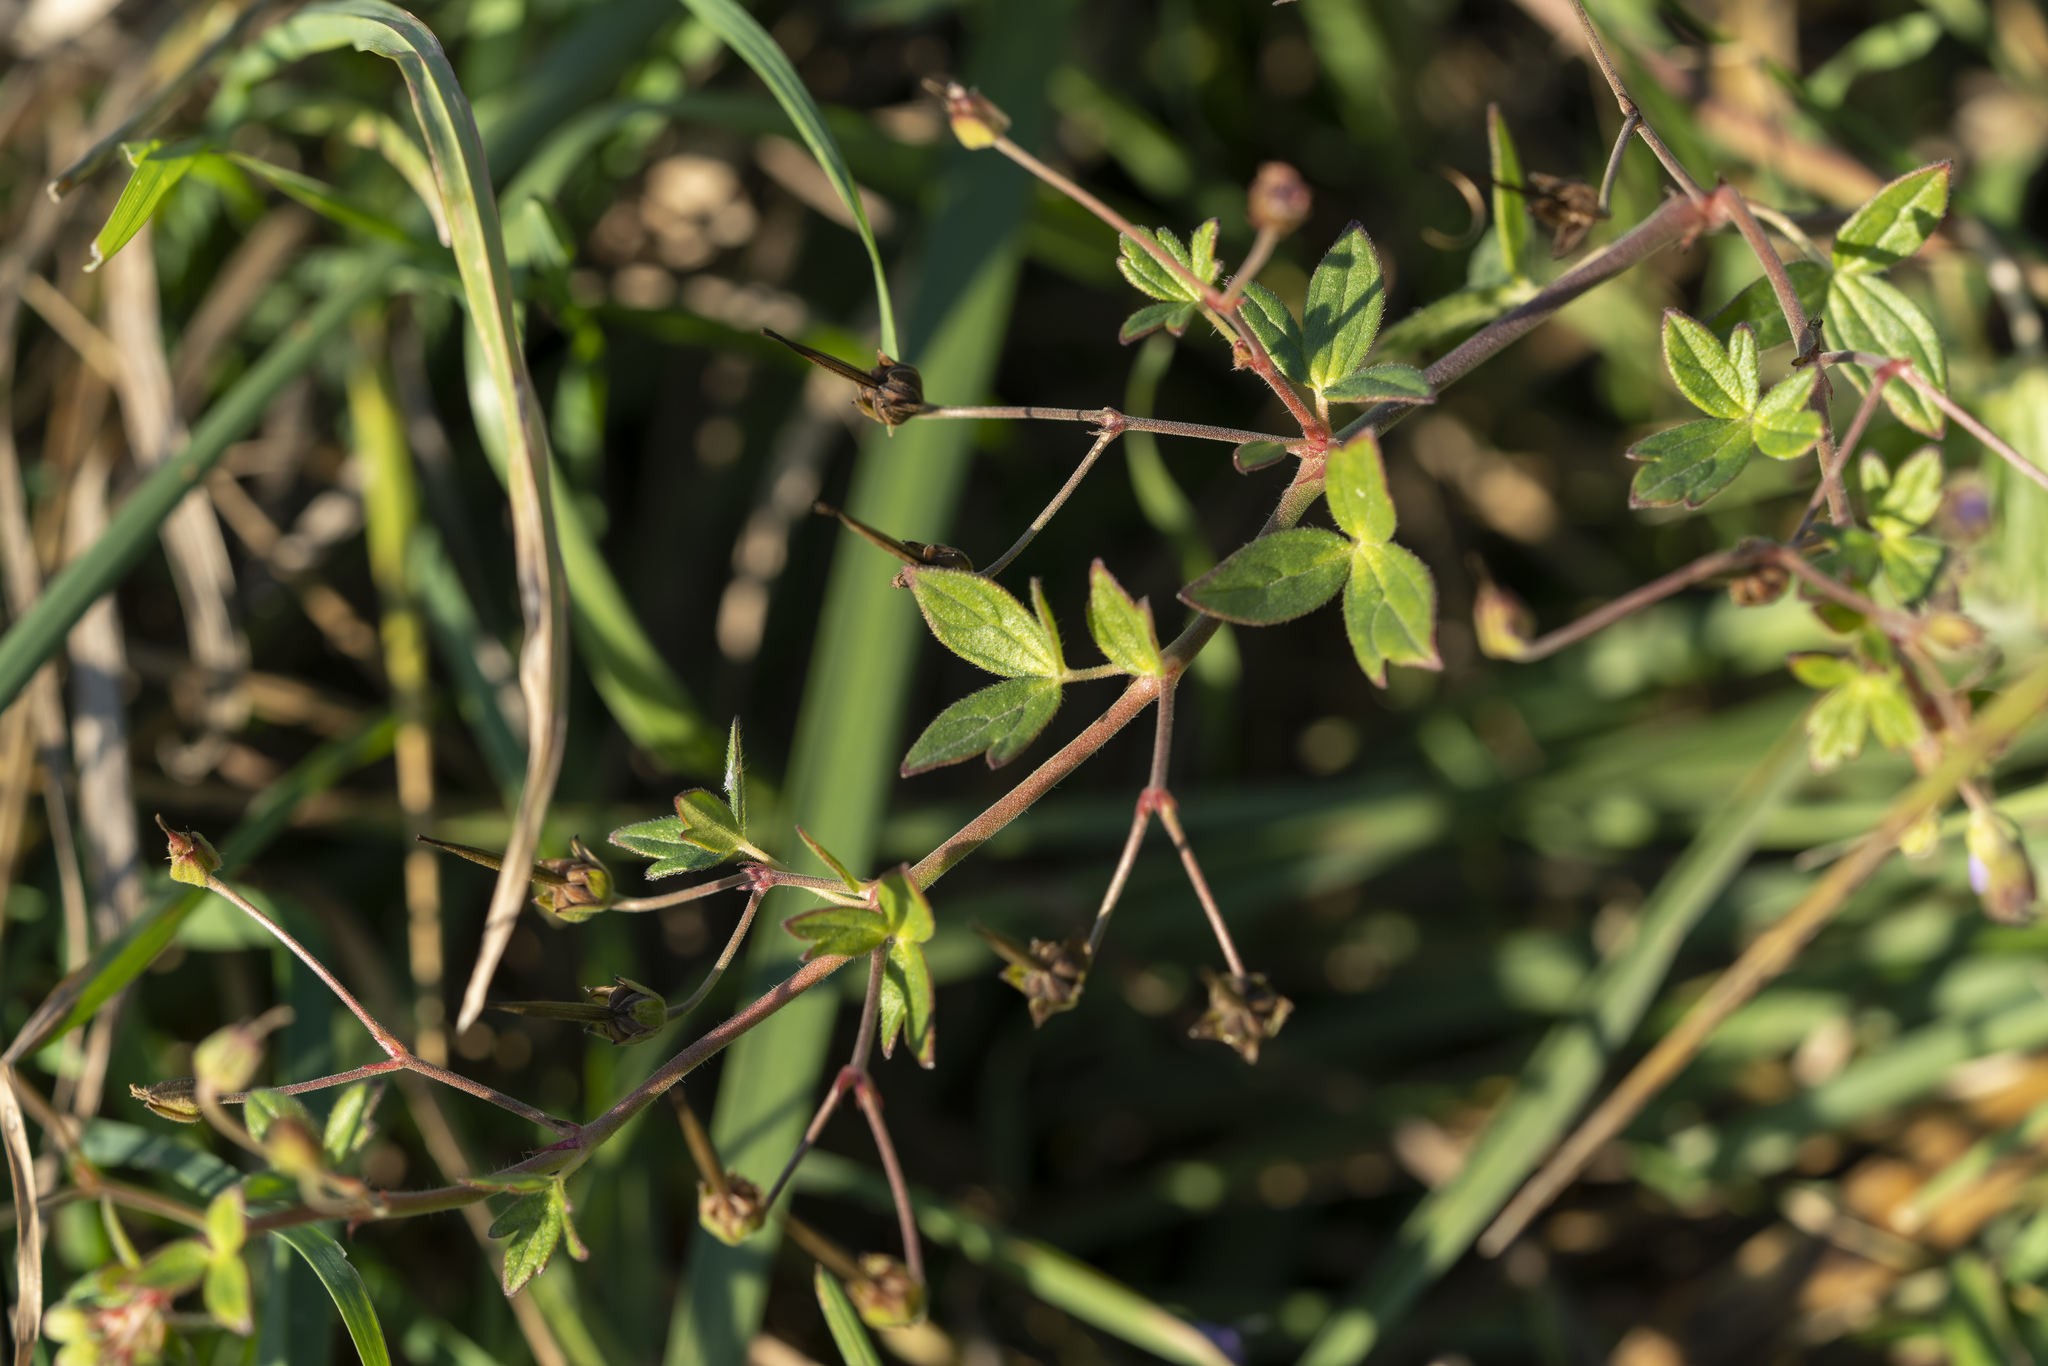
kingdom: Plantae
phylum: Tracheophyta
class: Magnoliopsida
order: Geraniales
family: Geraniaceae
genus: Geranium
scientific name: Geranium pyrenaicum
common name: Hedgerow crane's-bill
